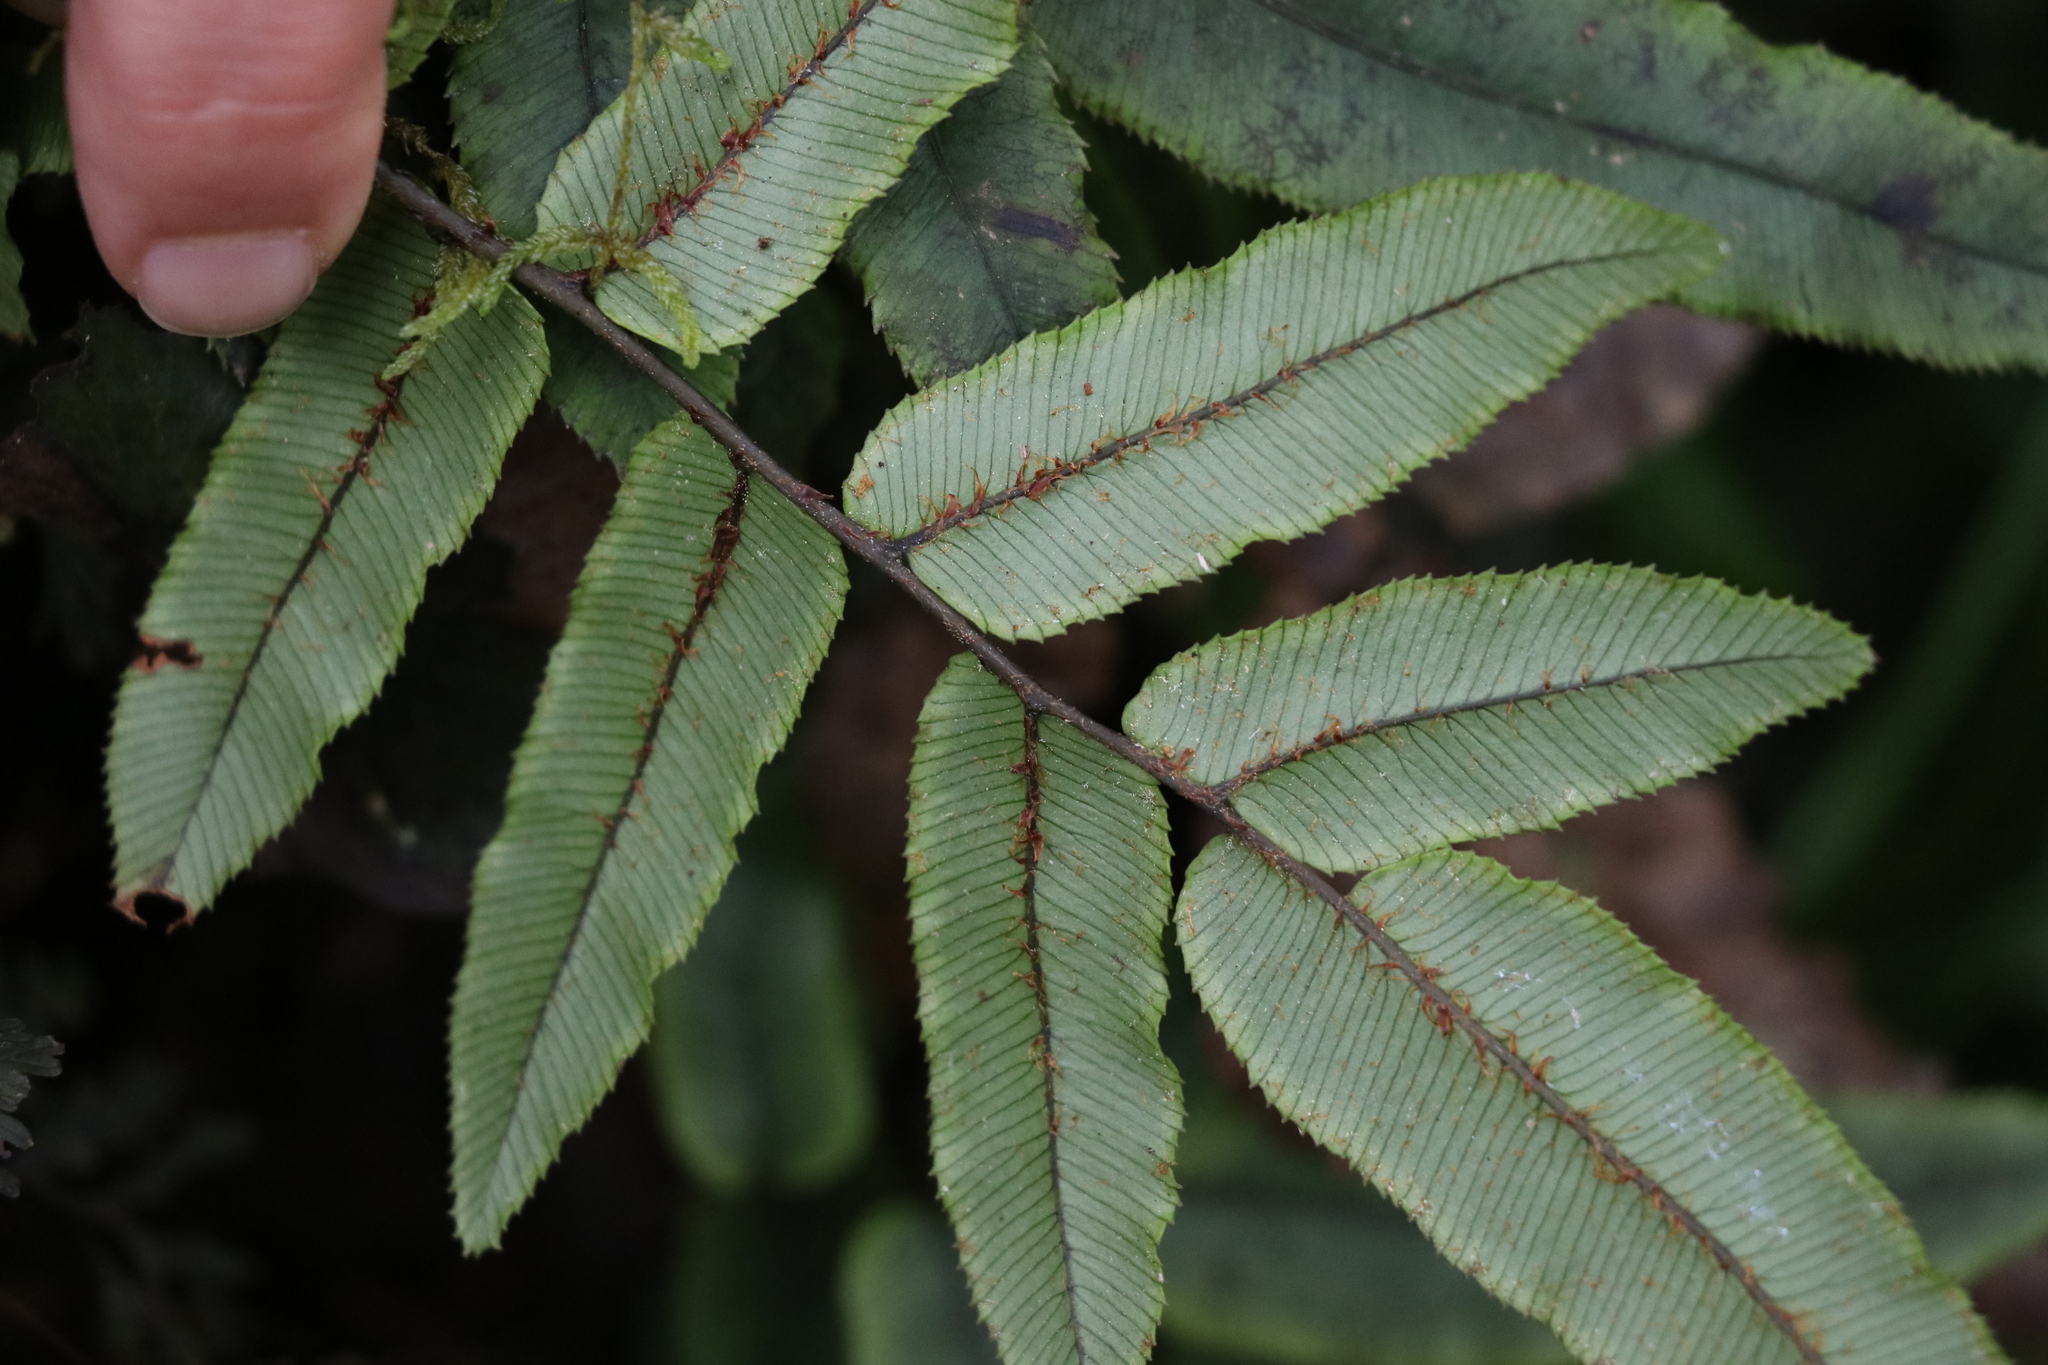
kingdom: Plantae
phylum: Tracheophyta
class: Polypodiopsida
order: Polypodiales
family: Blechnaceae
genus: Parablechnum
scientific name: Parablechnum procerum
